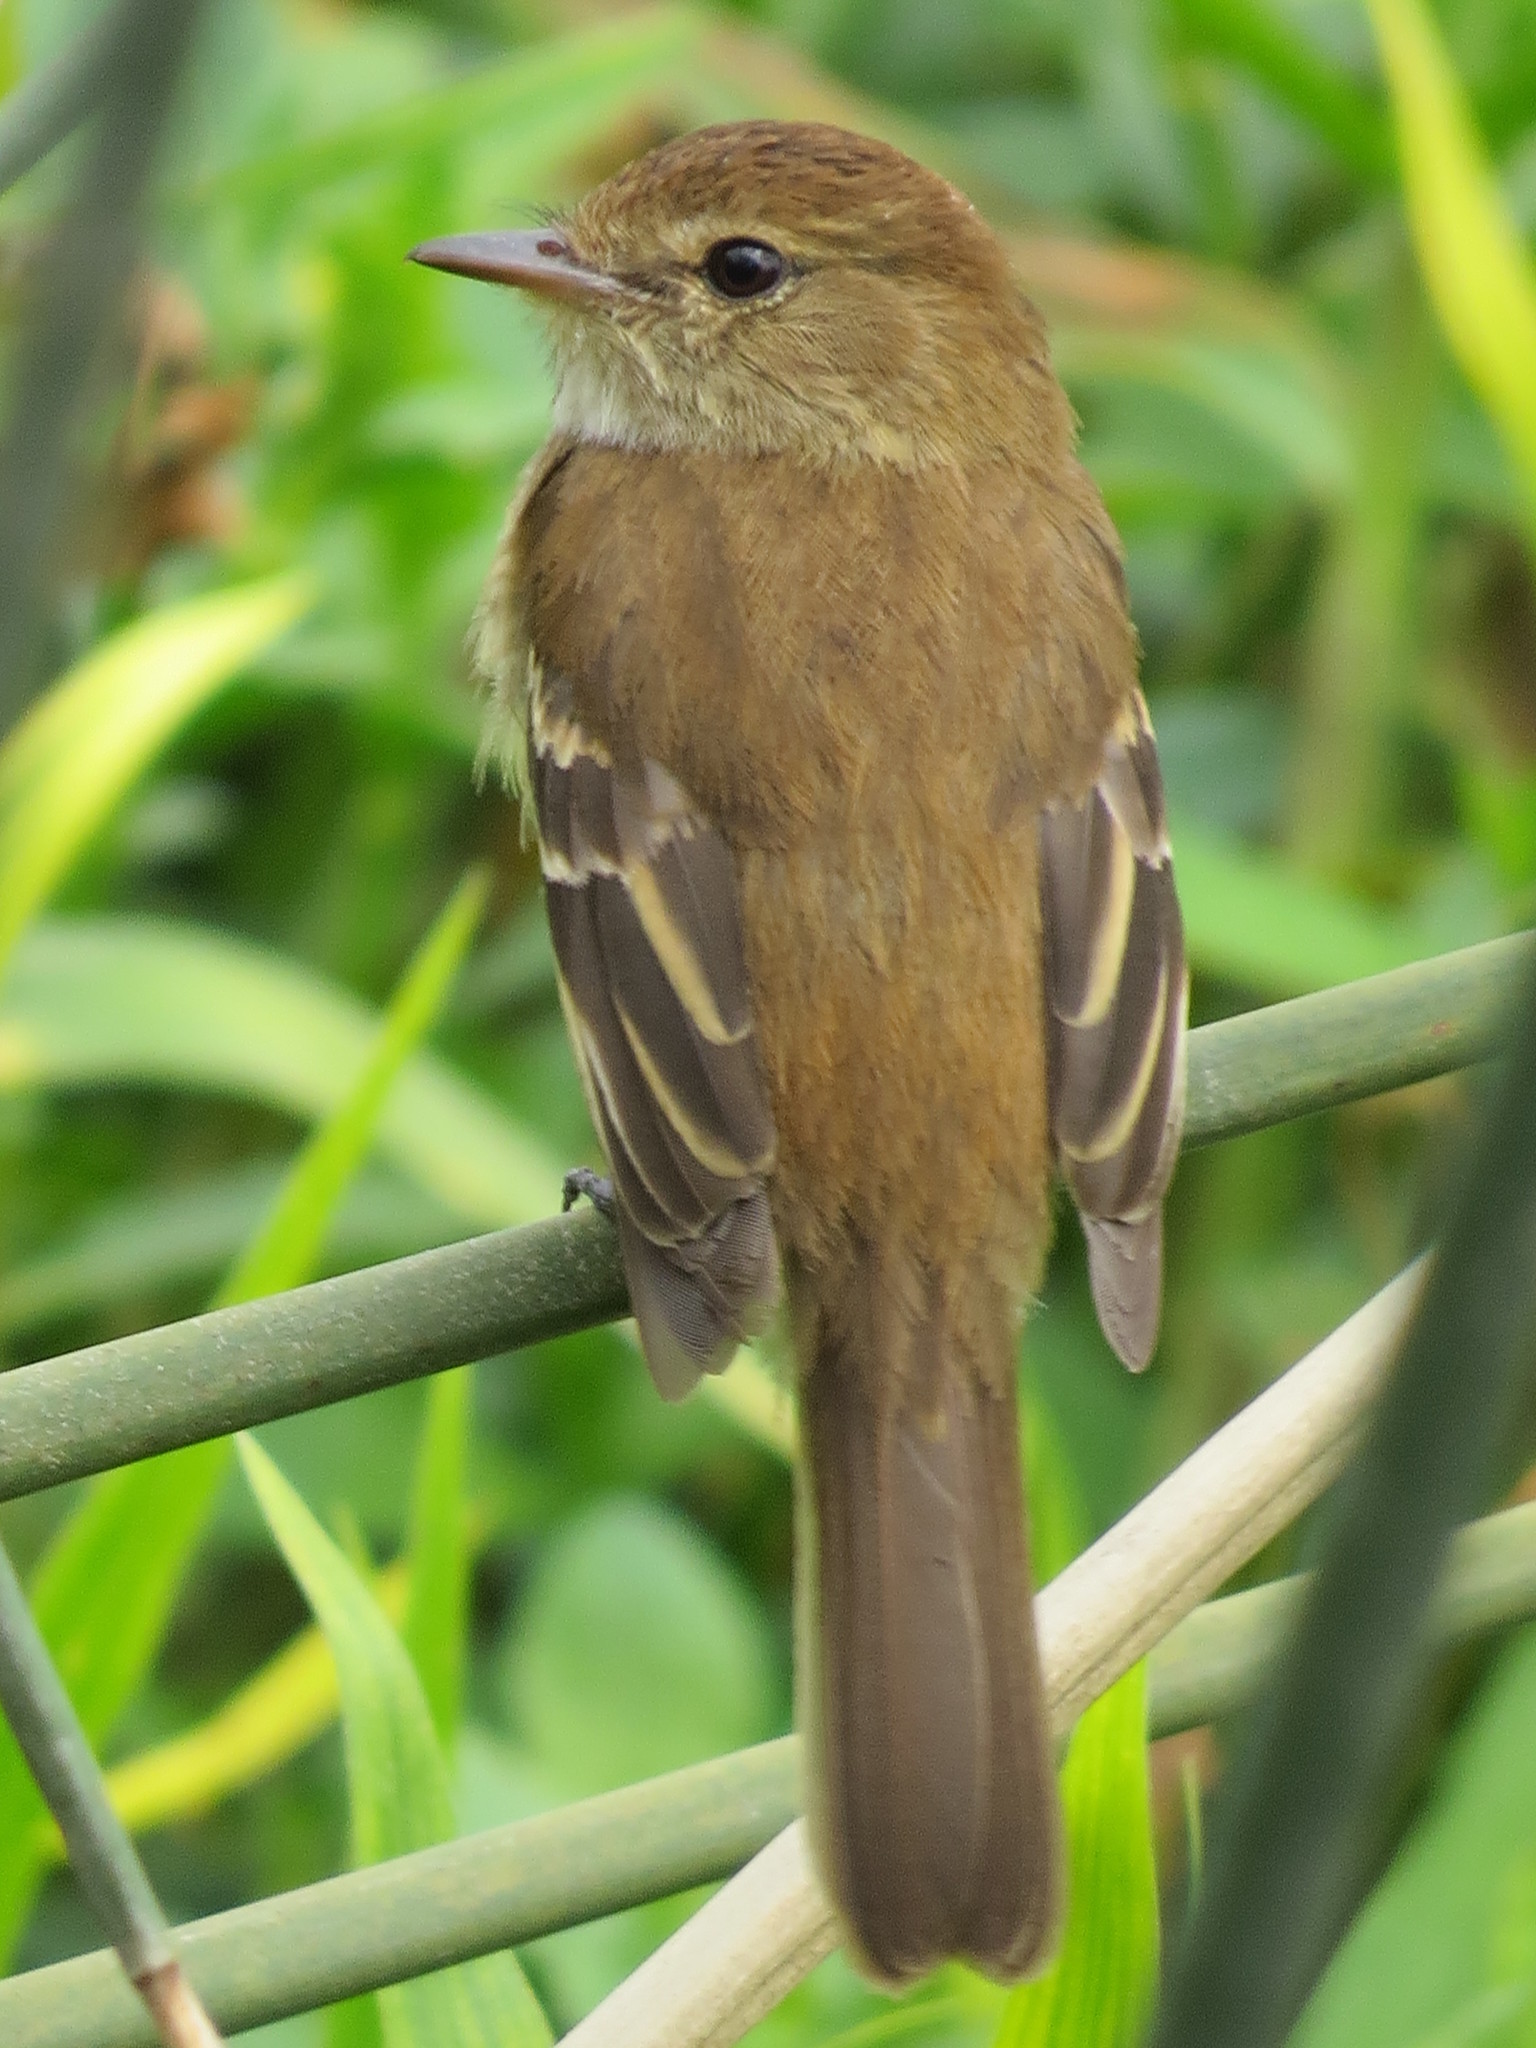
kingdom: Animalia
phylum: Chordata
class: Aves
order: Passeriformes
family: Tyrannidae
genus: Myiophobus
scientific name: Myiophobus fasciatus
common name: Bran-colored flycatcher
